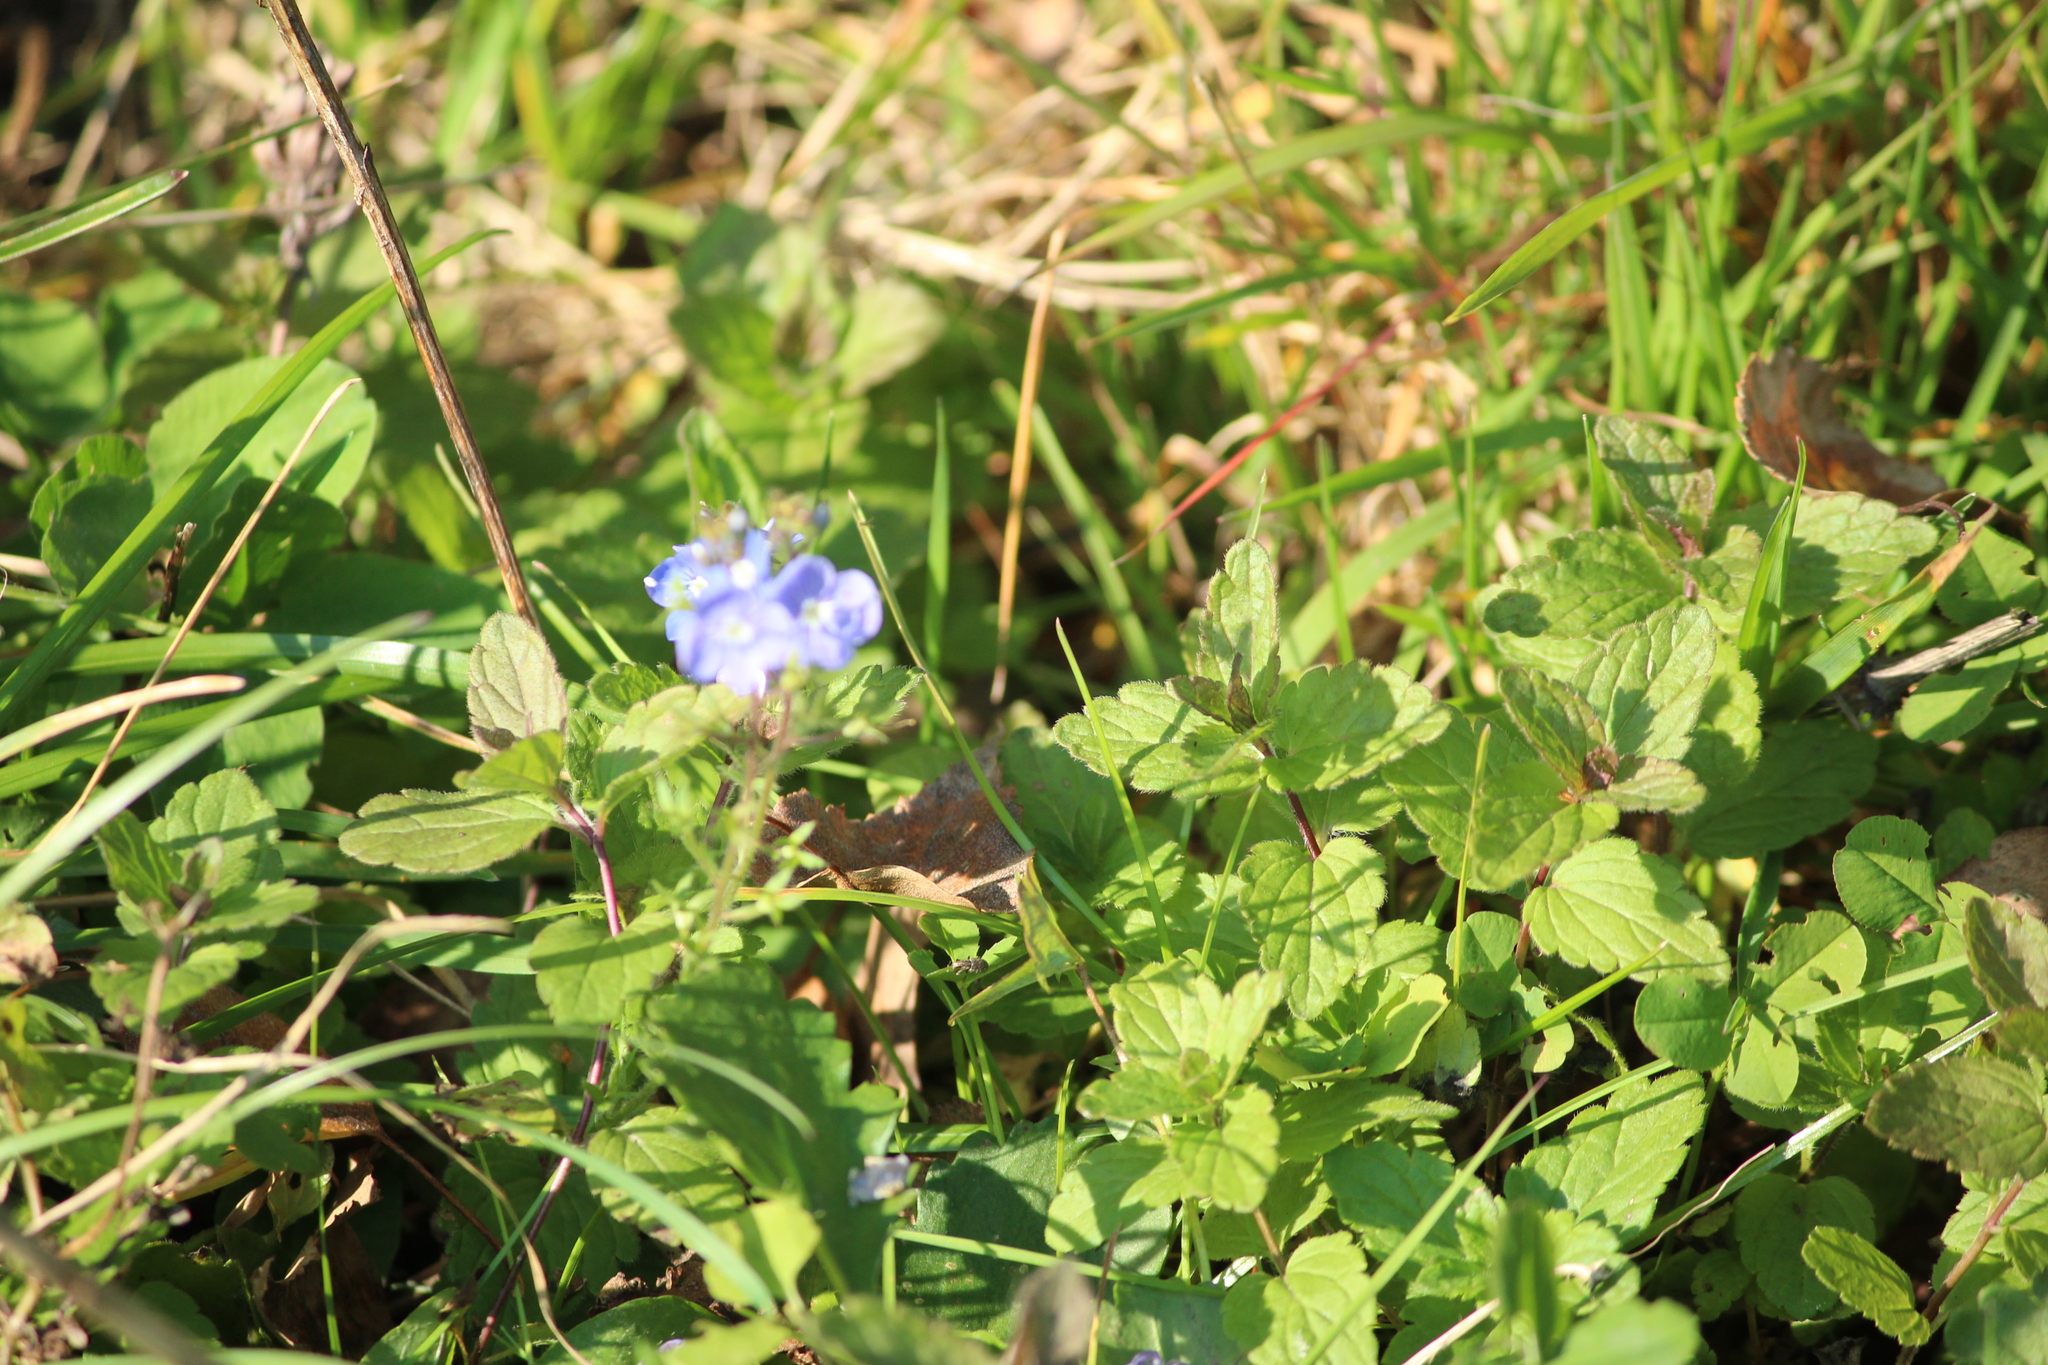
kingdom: Plantae
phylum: Tracheophyta
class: Magnoliopsida
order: Lamiales
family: Plantaginaceae
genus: Veronica
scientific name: Veronica chamaedrys
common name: Germander speedwell
